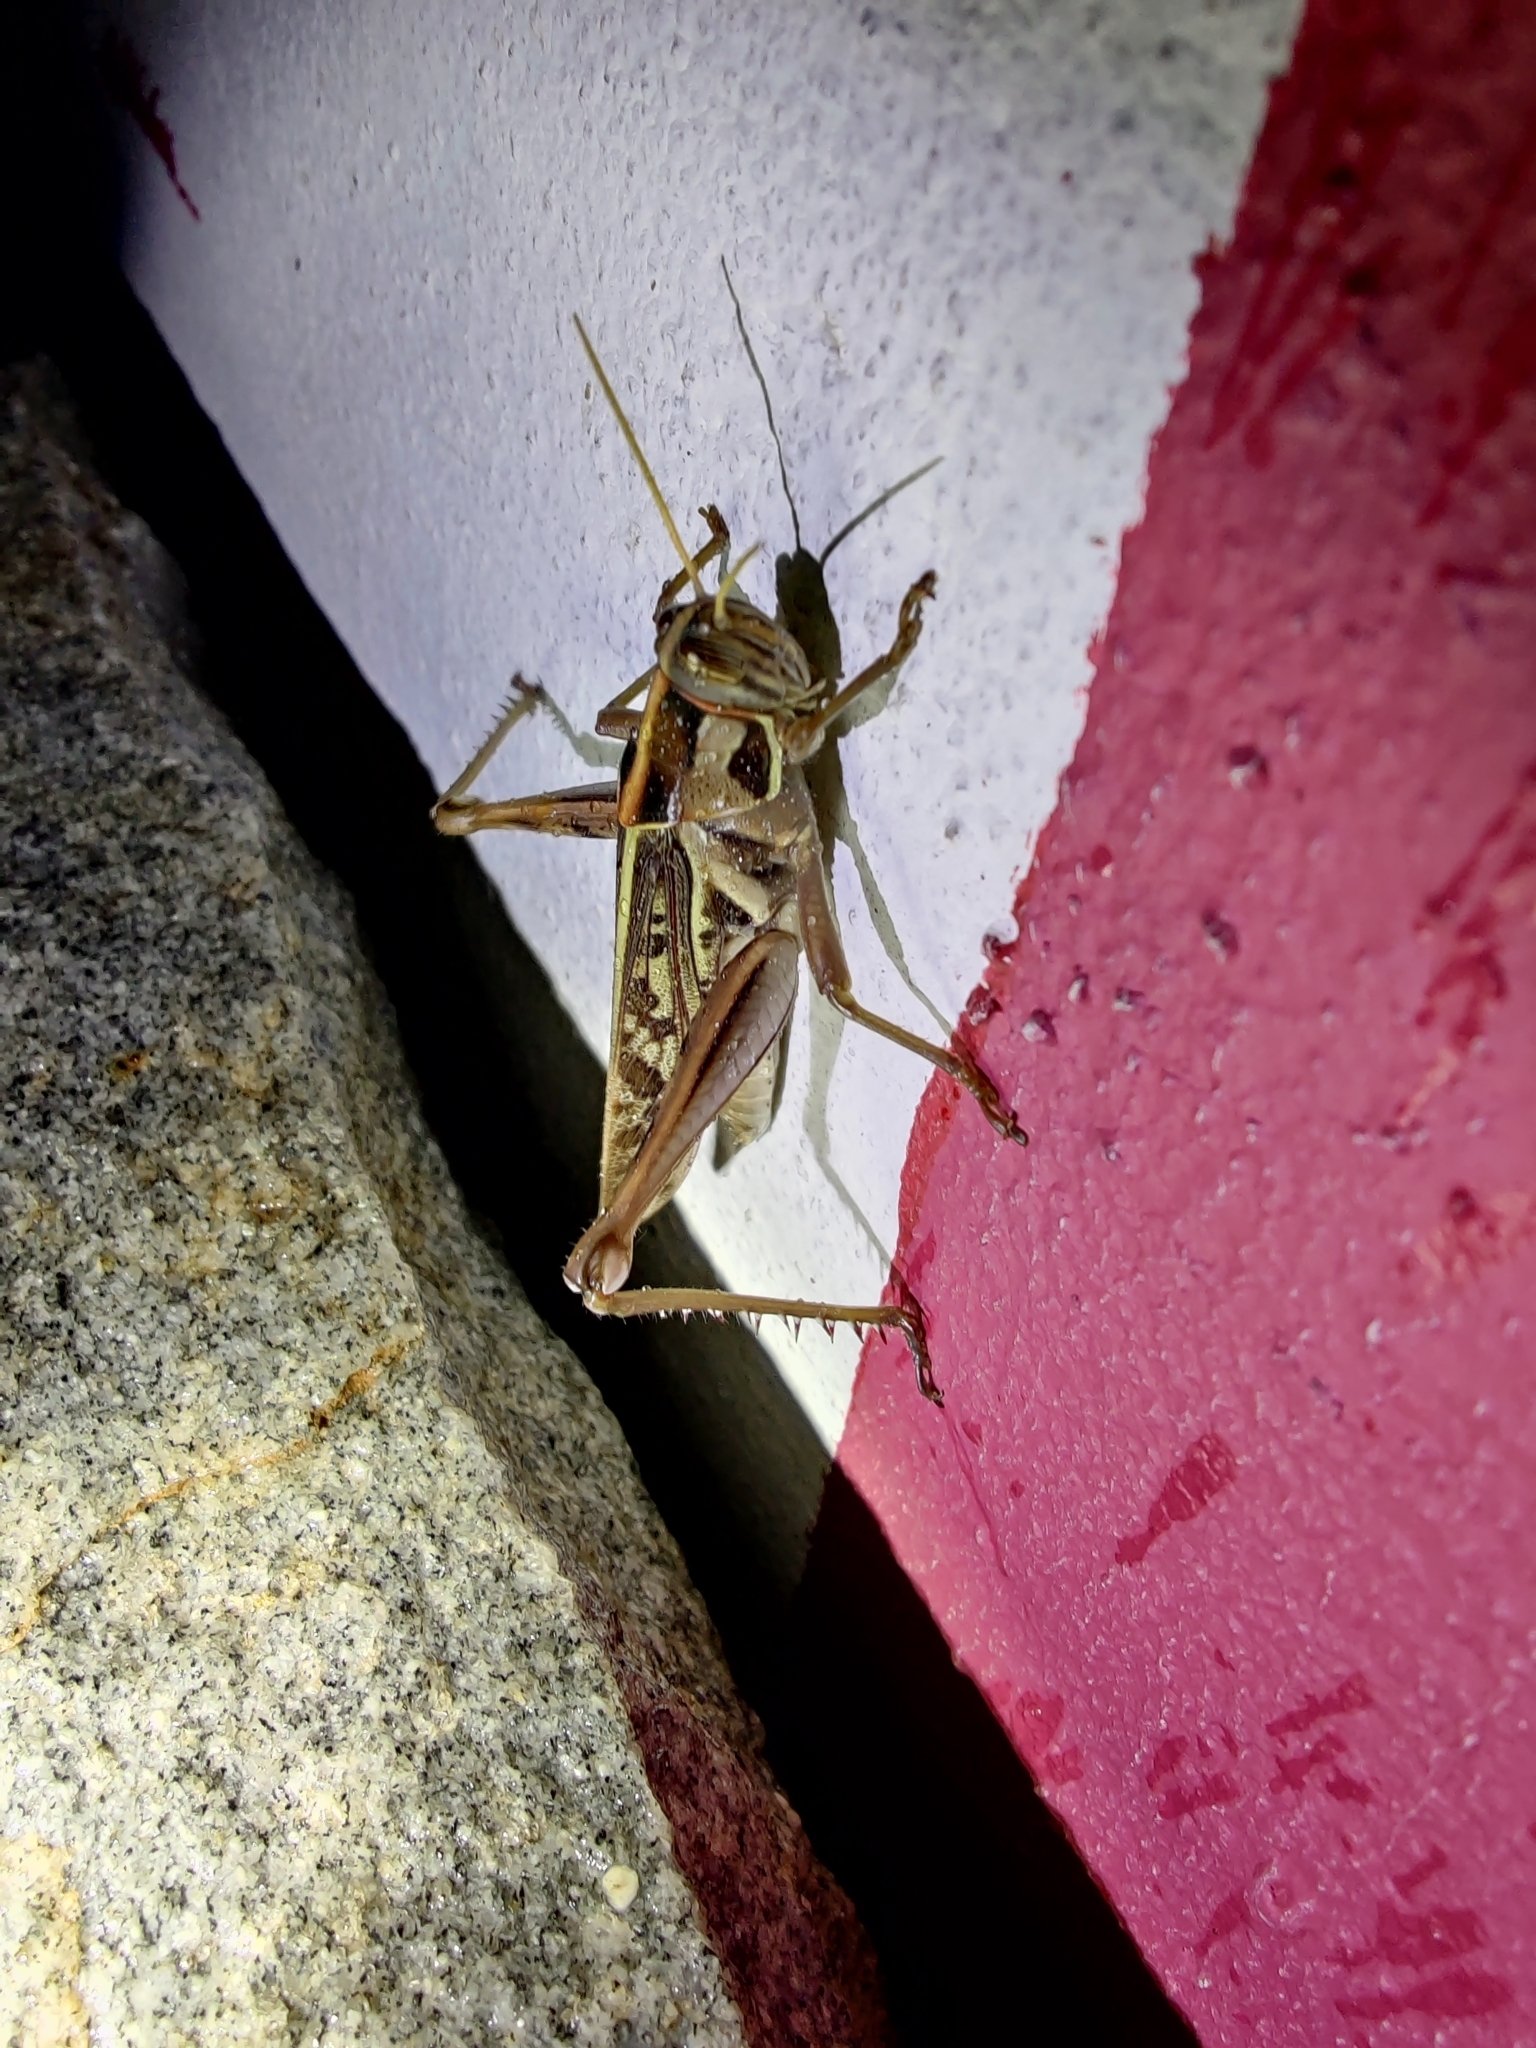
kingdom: Animalia
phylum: Arthropoda
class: Insecta
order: Orthoptera
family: Acrididae
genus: Cyrtacanthacris
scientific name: Cyrtacanthacris tatarica
